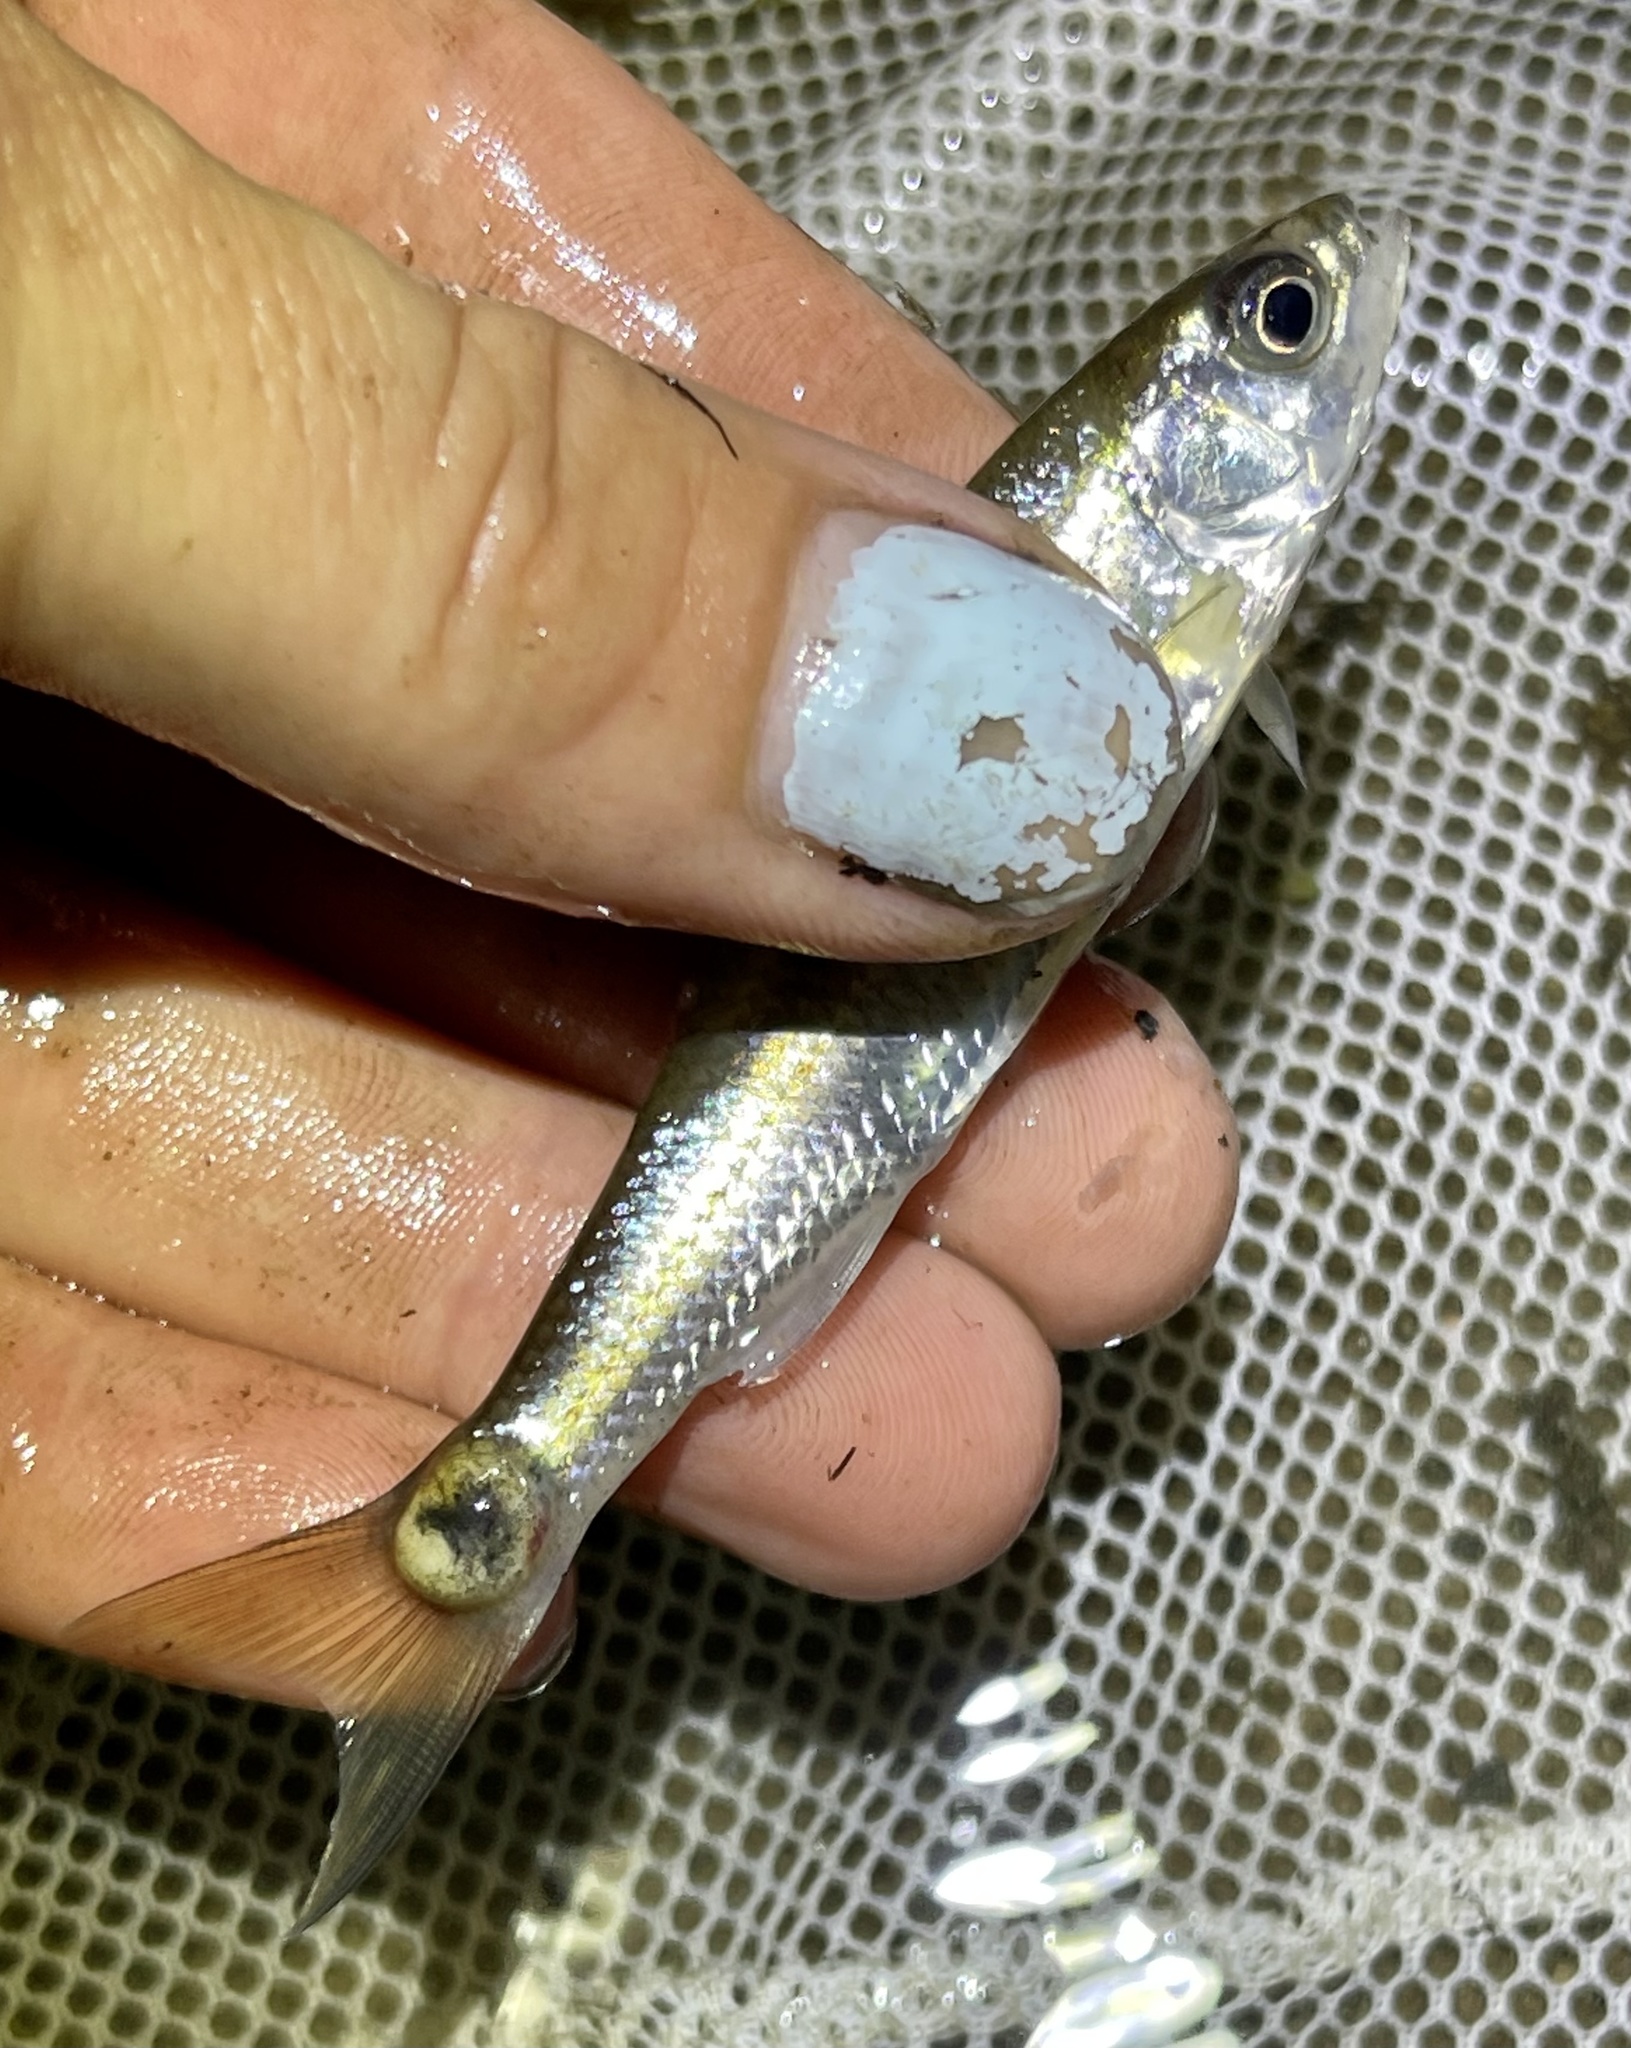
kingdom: Animalia
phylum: Chordata
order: Cypriniformes
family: Cyprinidae
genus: Luxilus
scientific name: Luxilus cornutus
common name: Common shiner
